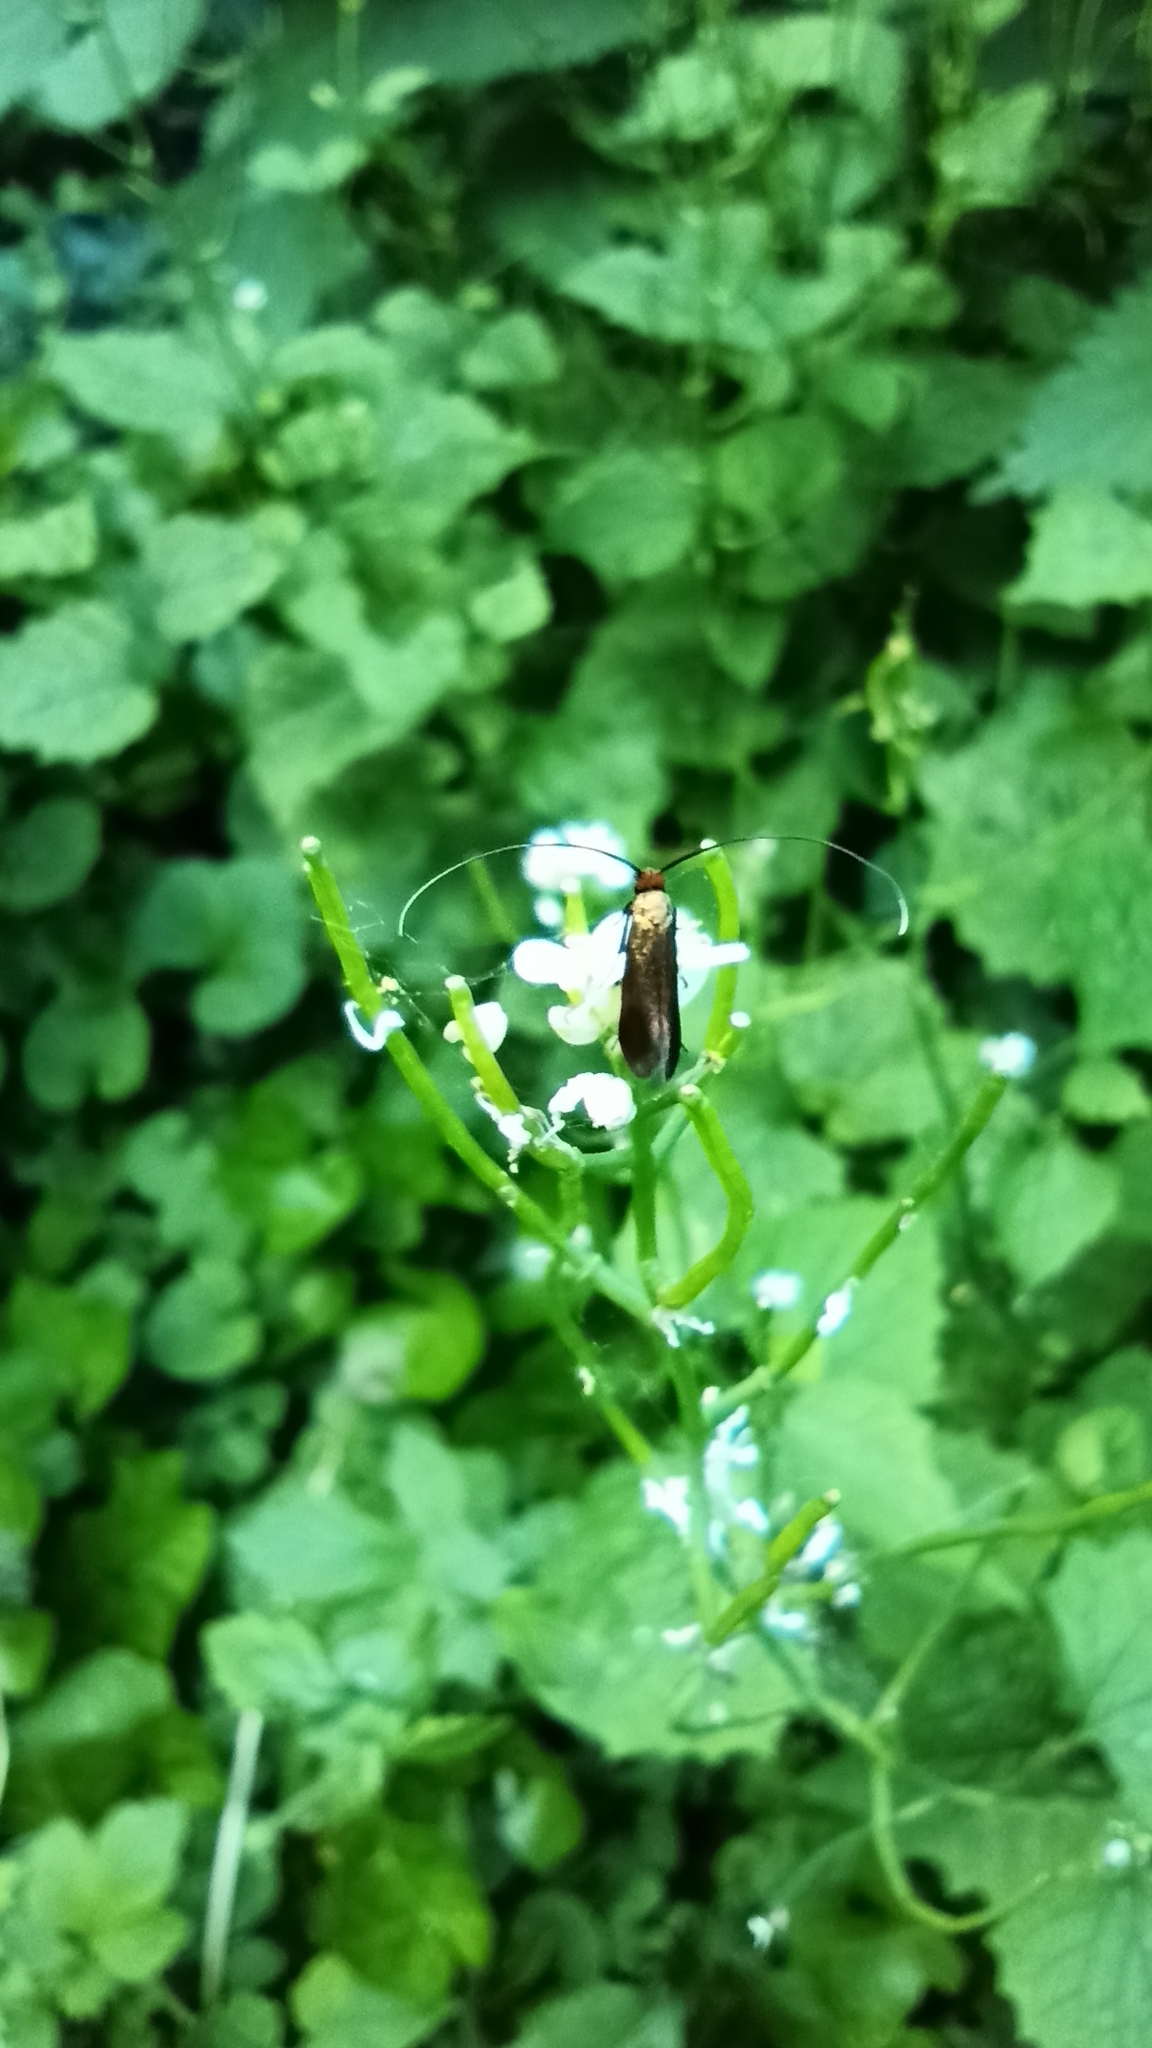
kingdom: Animalia
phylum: Arthropoda
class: Insecta
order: Lepidoptera
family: Adelidae
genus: Cauchas
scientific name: Cauchas rufimitrella
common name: Meadow long-horn
